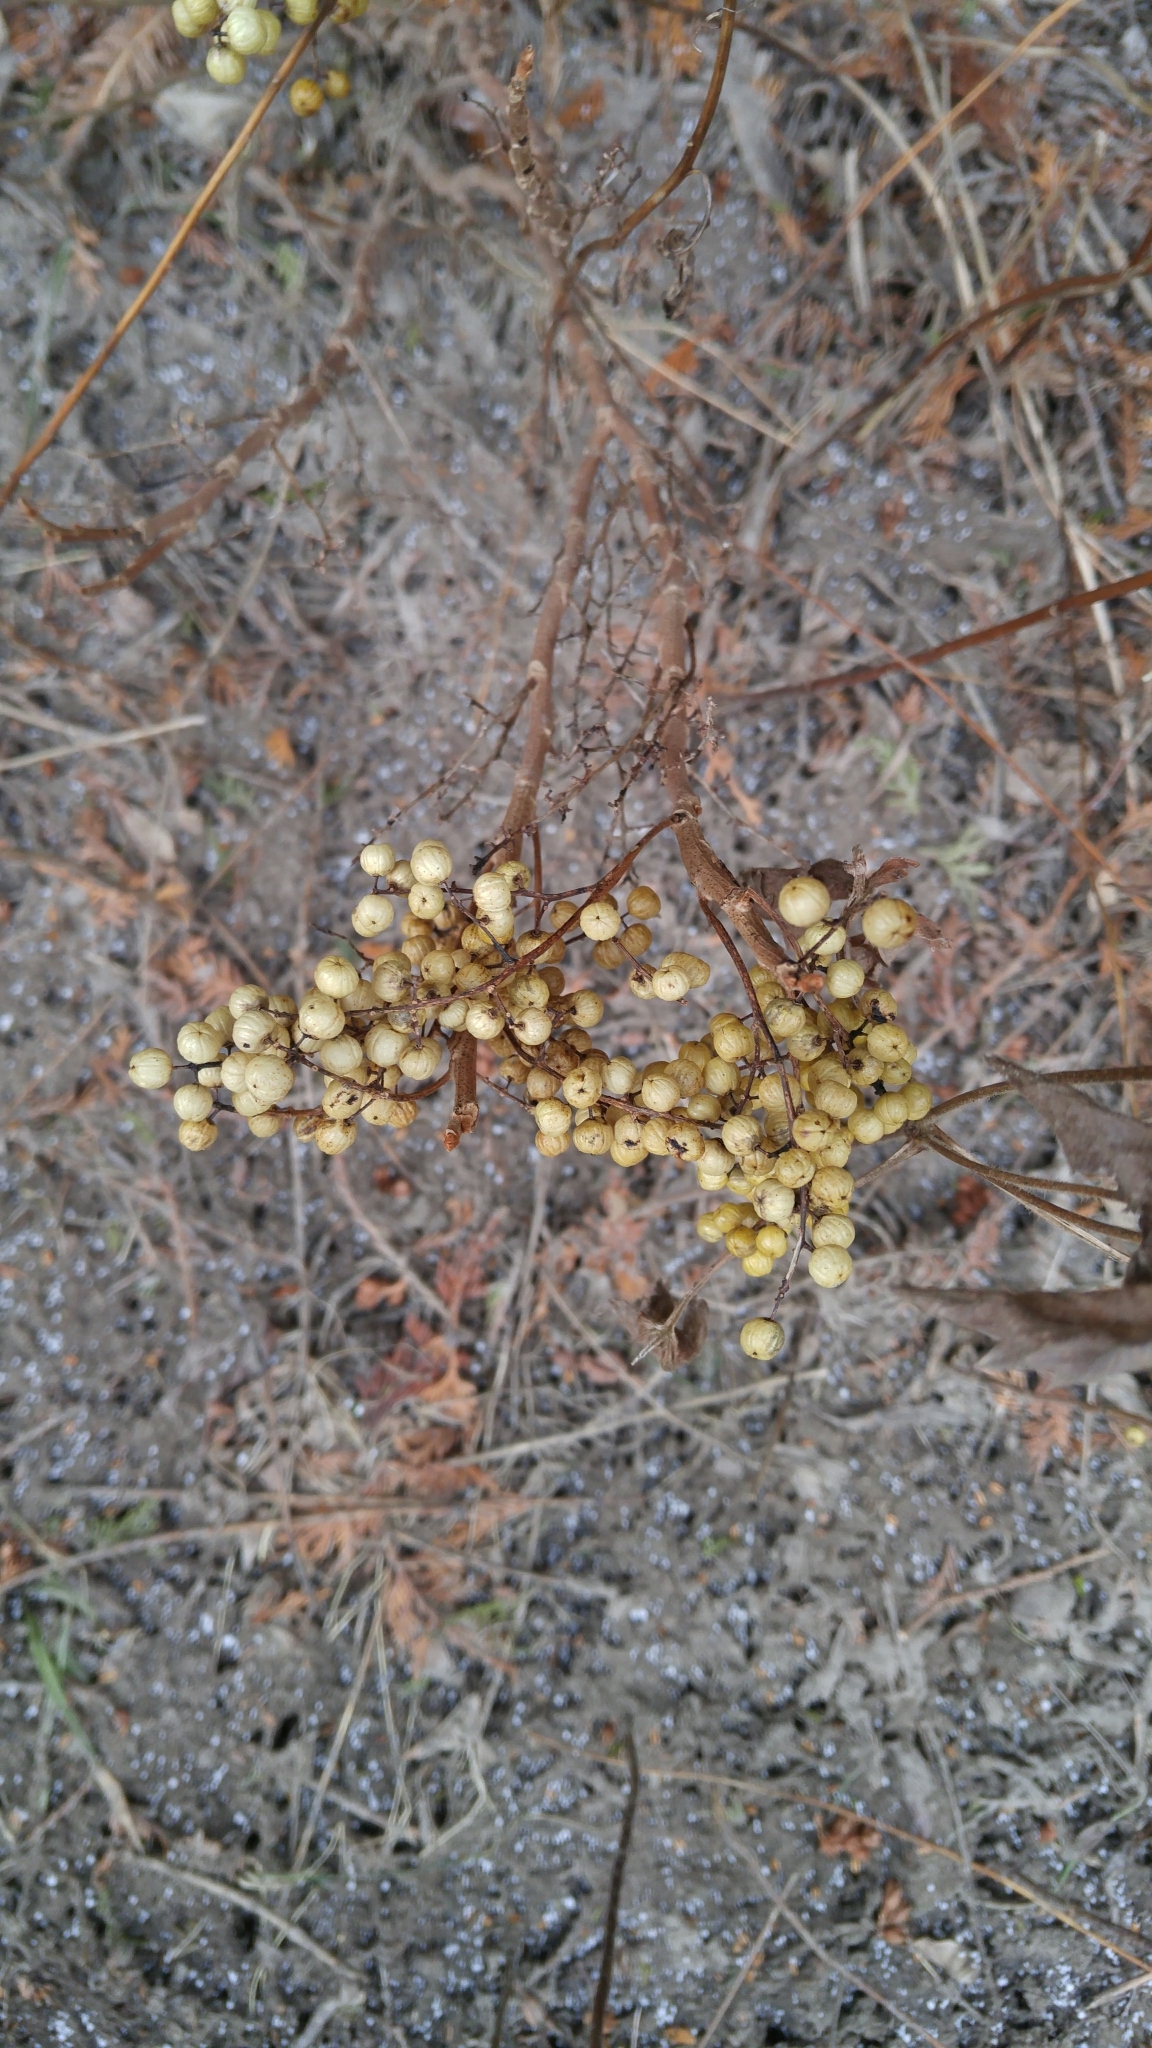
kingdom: Plantae
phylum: Tracheophyta
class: Magnoliopsida
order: Sapindales
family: Anacardiaceae
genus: Toxicodendron
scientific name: Toxicodendron radicans
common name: Poison ivy
